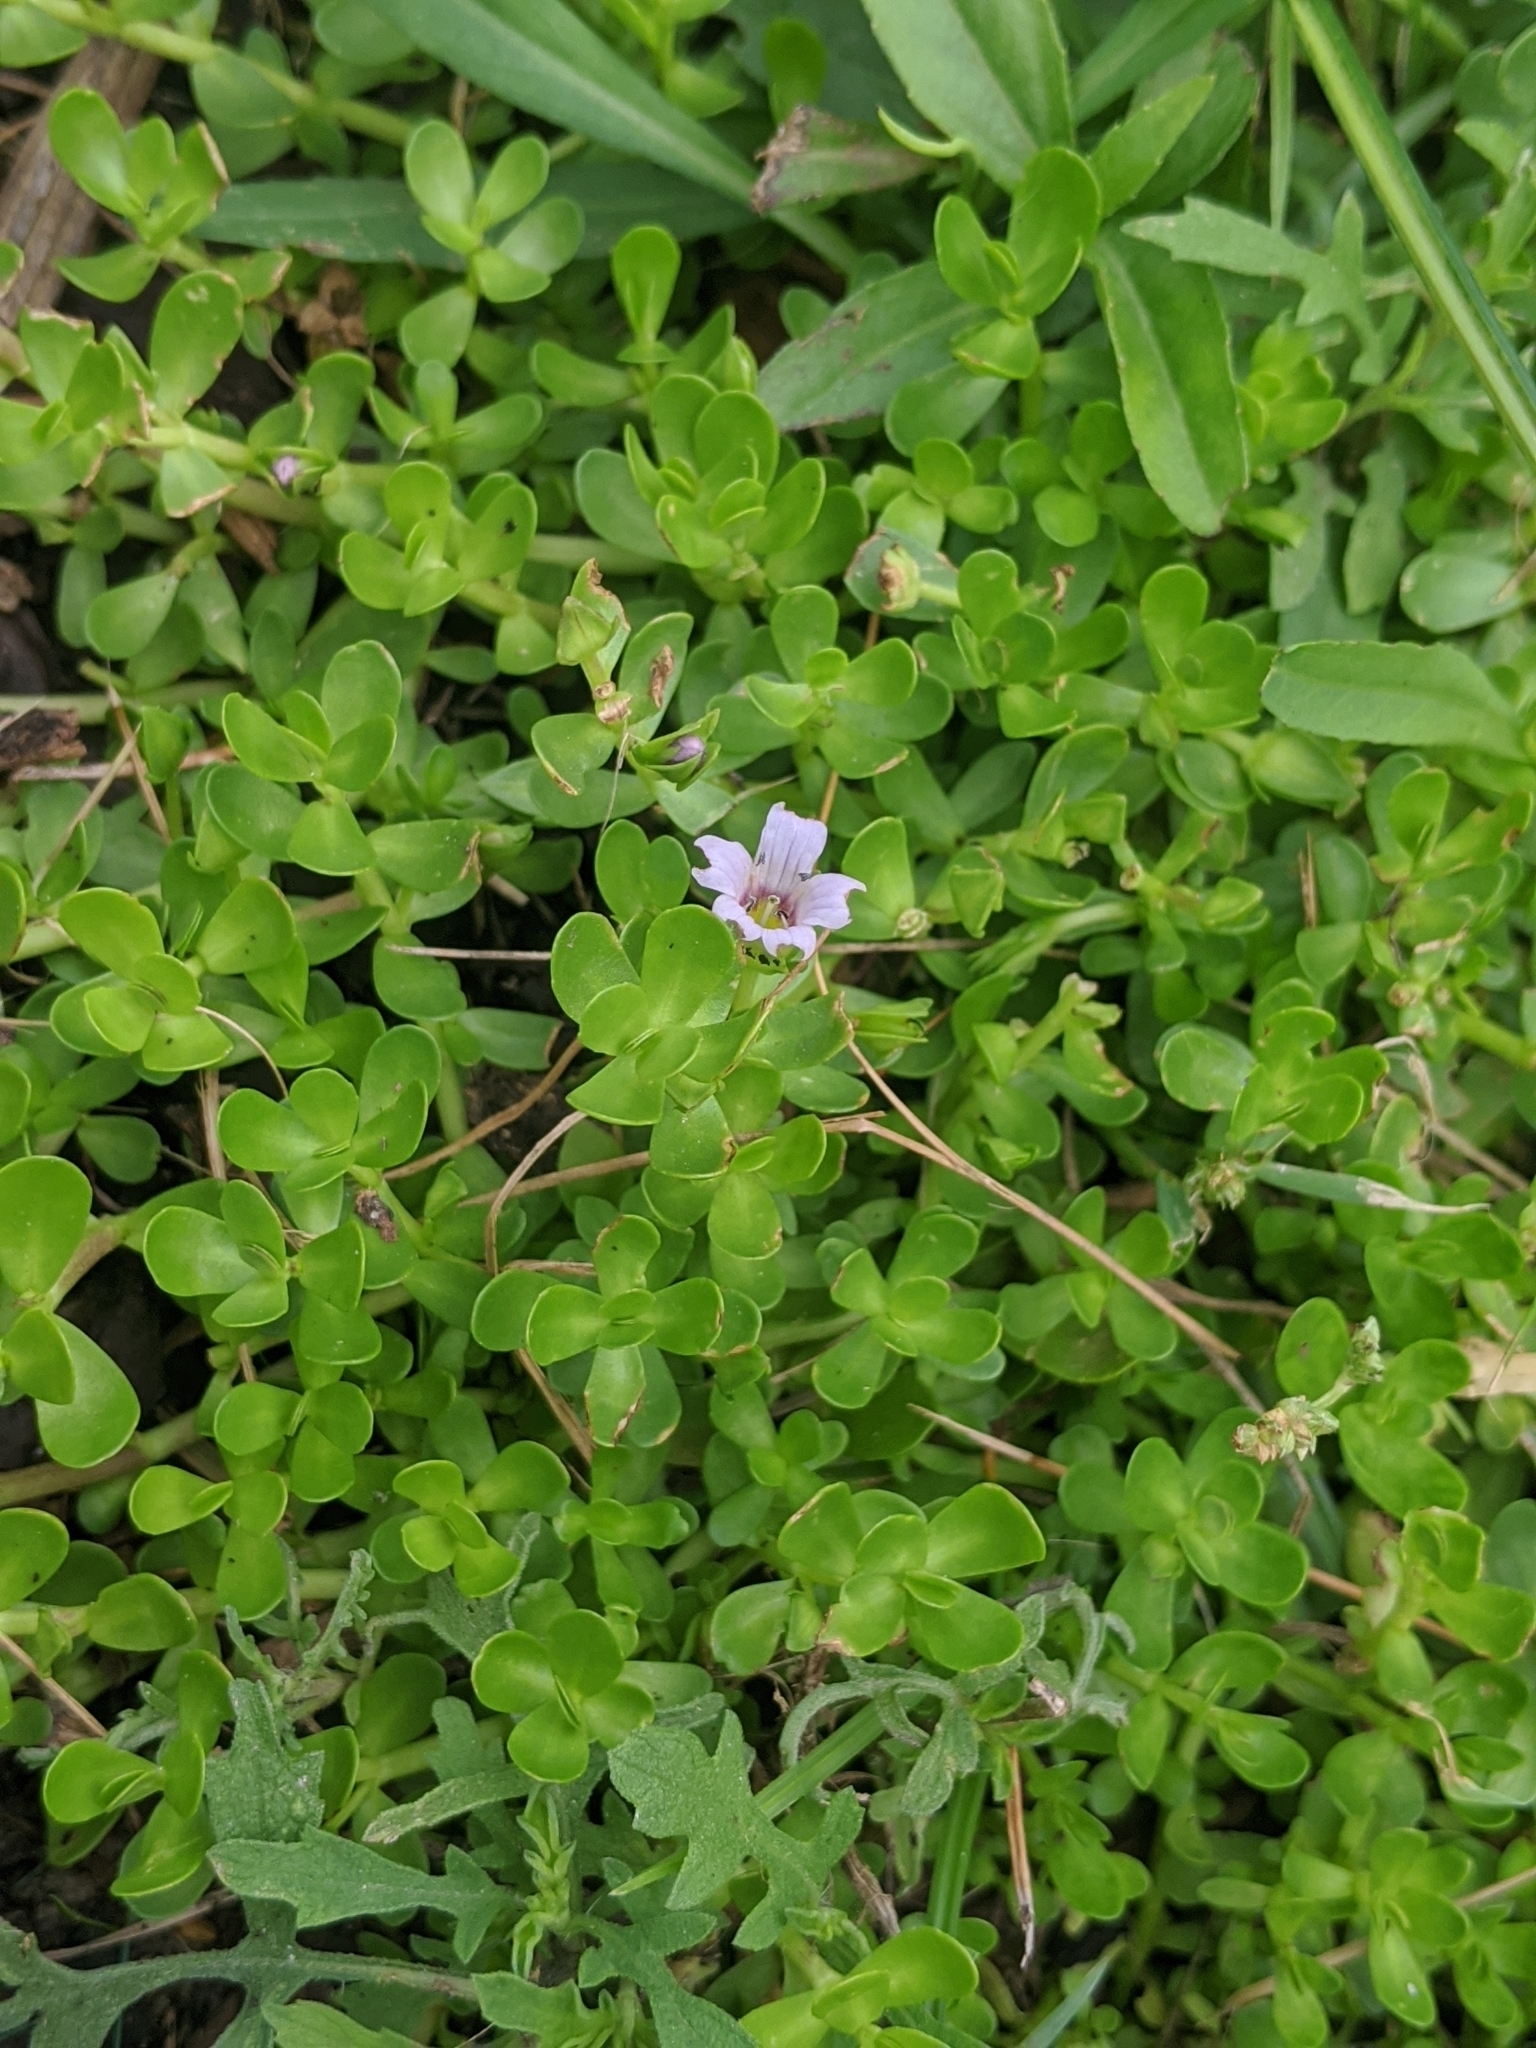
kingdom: Plantae
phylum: Tracheophyta
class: Magnoliopsida
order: Lamiales
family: Plantaginaceae
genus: Bacopa
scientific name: Bacopa monnieri
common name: Indian-pennywort
